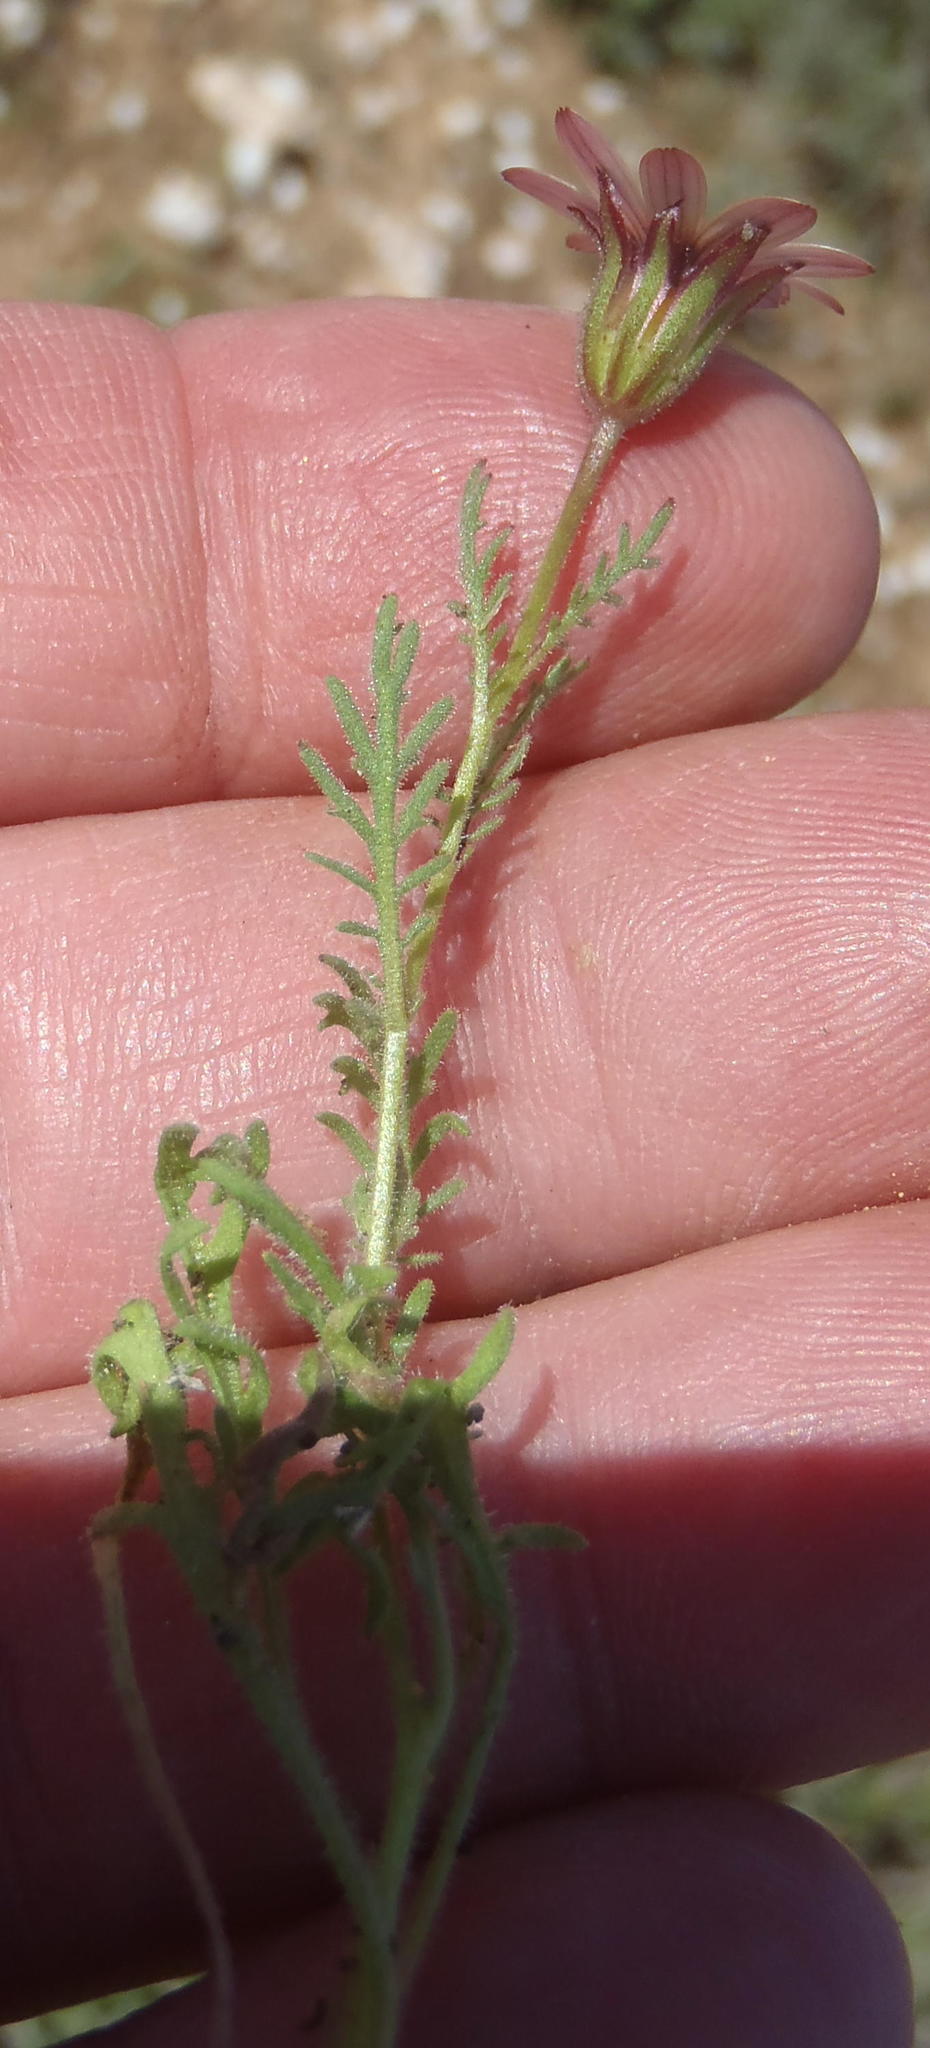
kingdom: Plantae
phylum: Tracheophyta
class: Magnoliopsida
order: Asterales
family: Asteraceae
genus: Dimorphotheca
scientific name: Dimorphotheca pinnata
